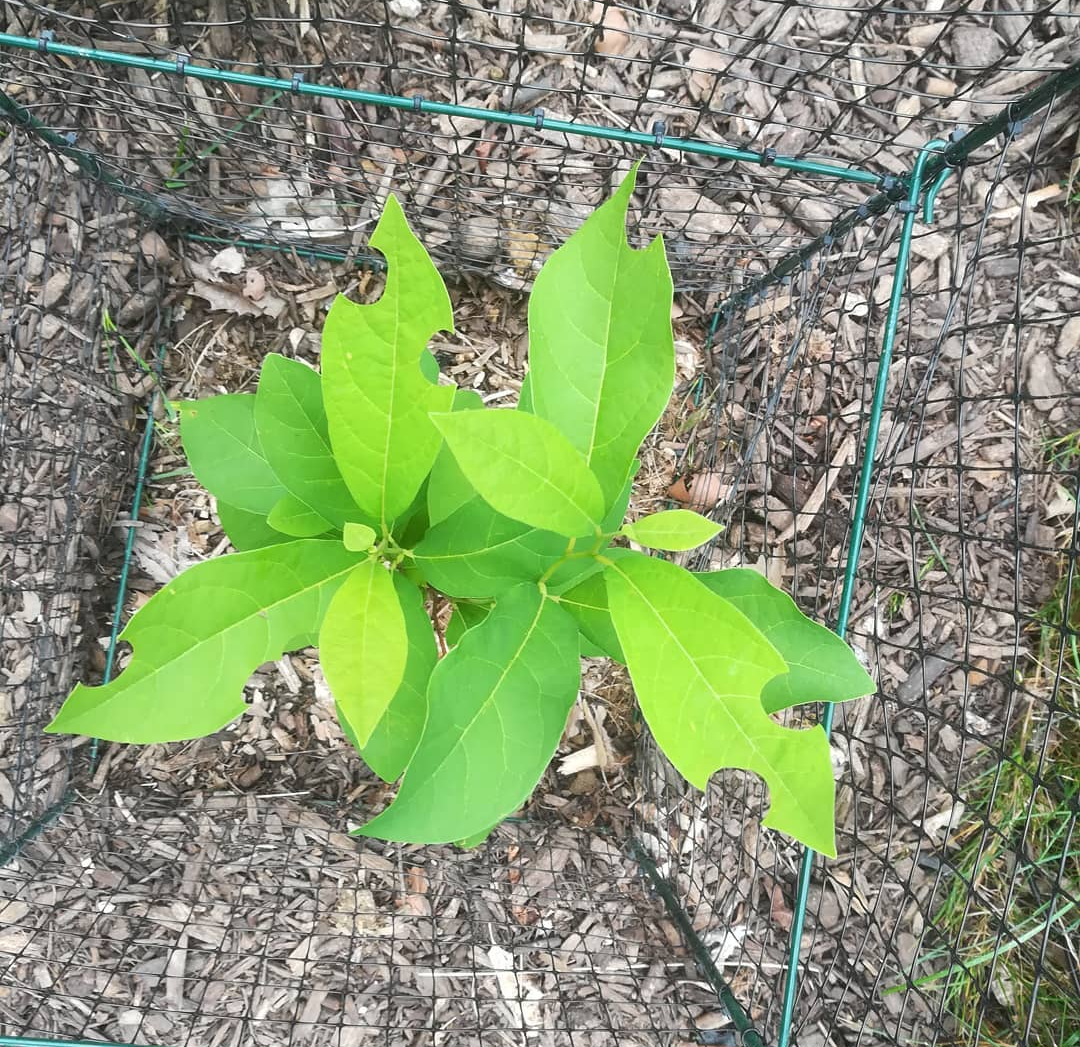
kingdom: Plantae
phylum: Tracheophyta
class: Magnoliopsida
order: Laurales
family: Lauraceae
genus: Lindera
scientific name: Lindera benzoin
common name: Spicebush
